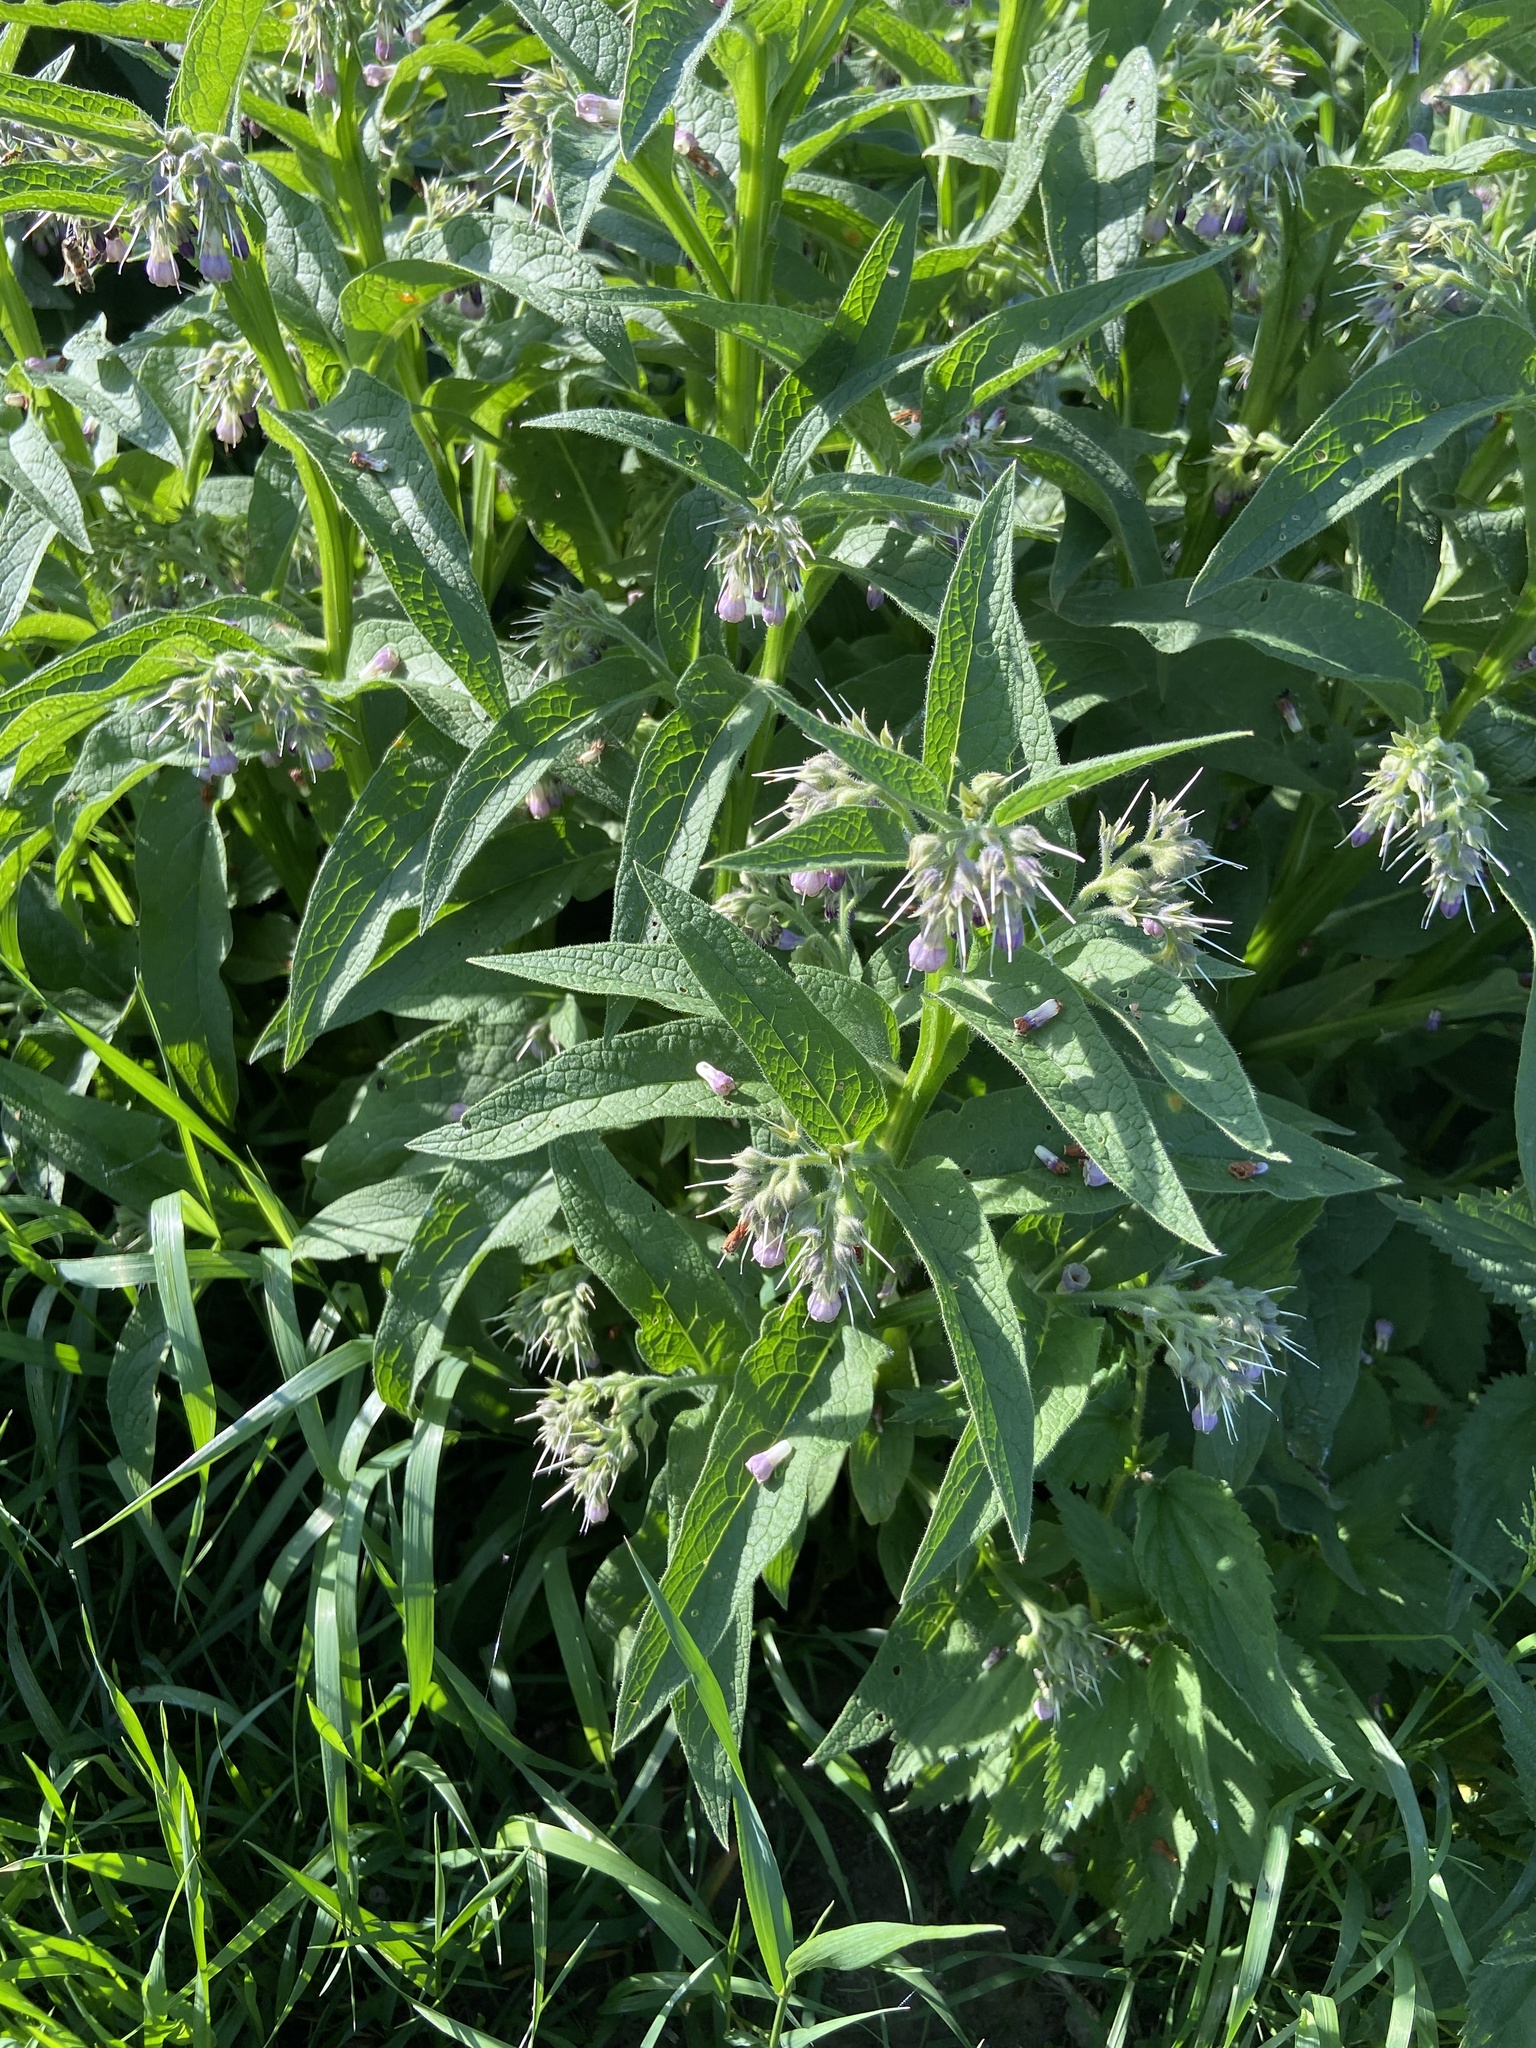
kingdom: Plantae
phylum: Tracheophyta
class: Magnoliopsida
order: Boraginales
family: Boraginaceae
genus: Symphytum
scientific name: Symphytum officinale
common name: Common comfrey
